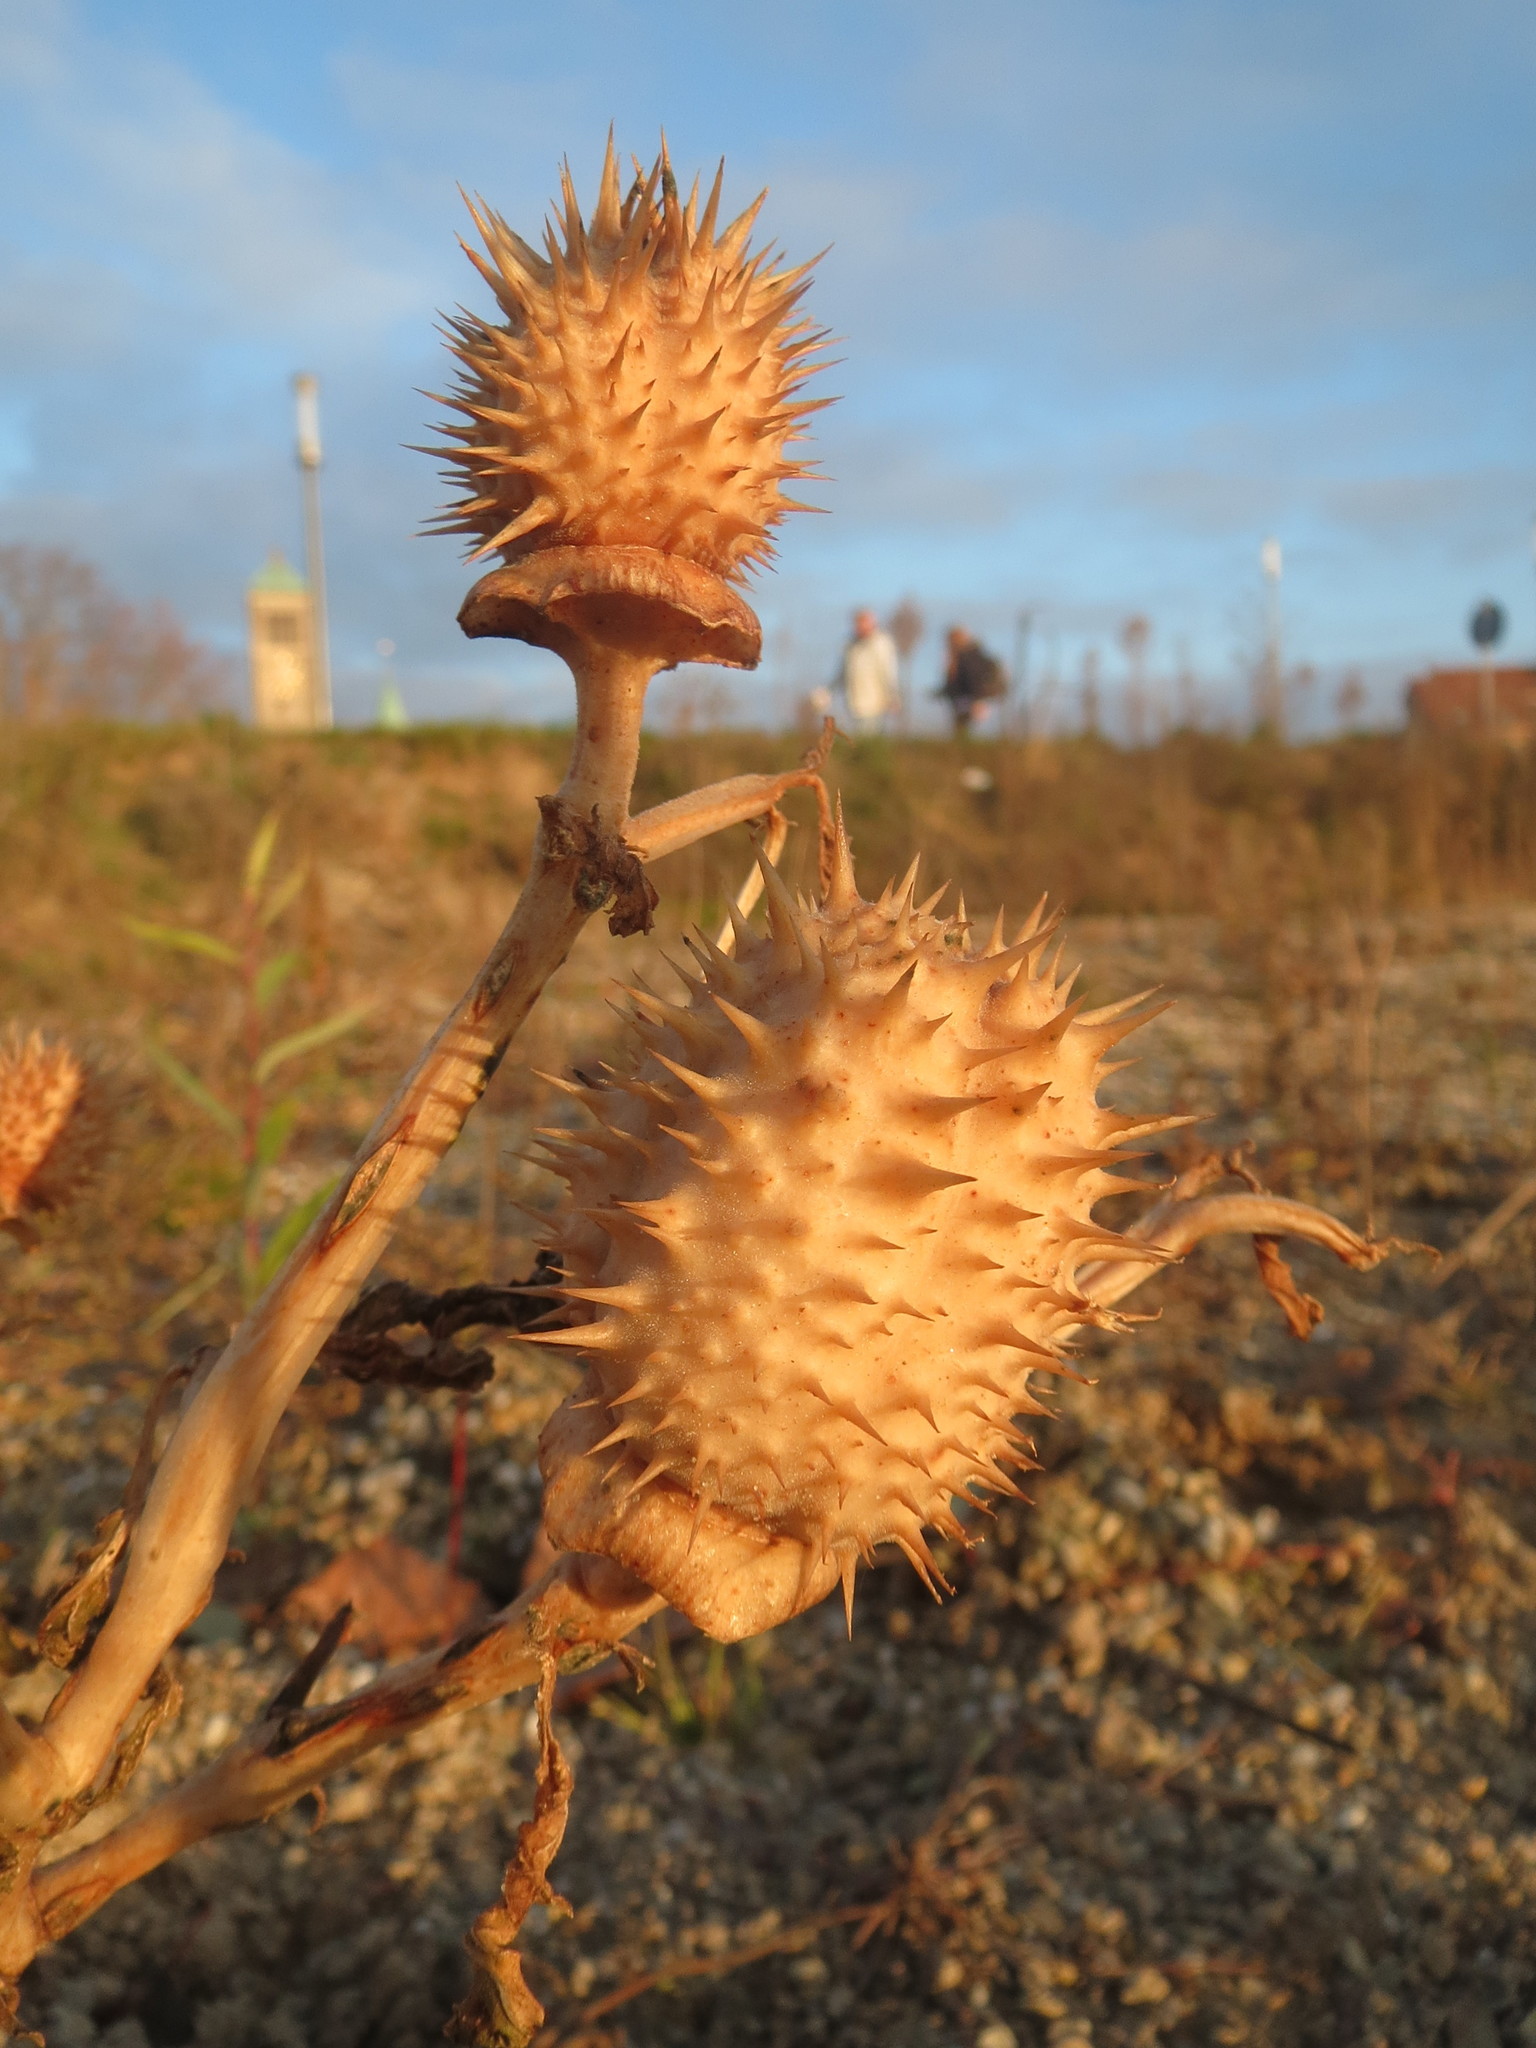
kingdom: Plantae
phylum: Tracheophyta
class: Magnoliopsida
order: Solanales
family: Solanaceae
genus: Datura
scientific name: Datura stramonium
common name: Thorn-apple
